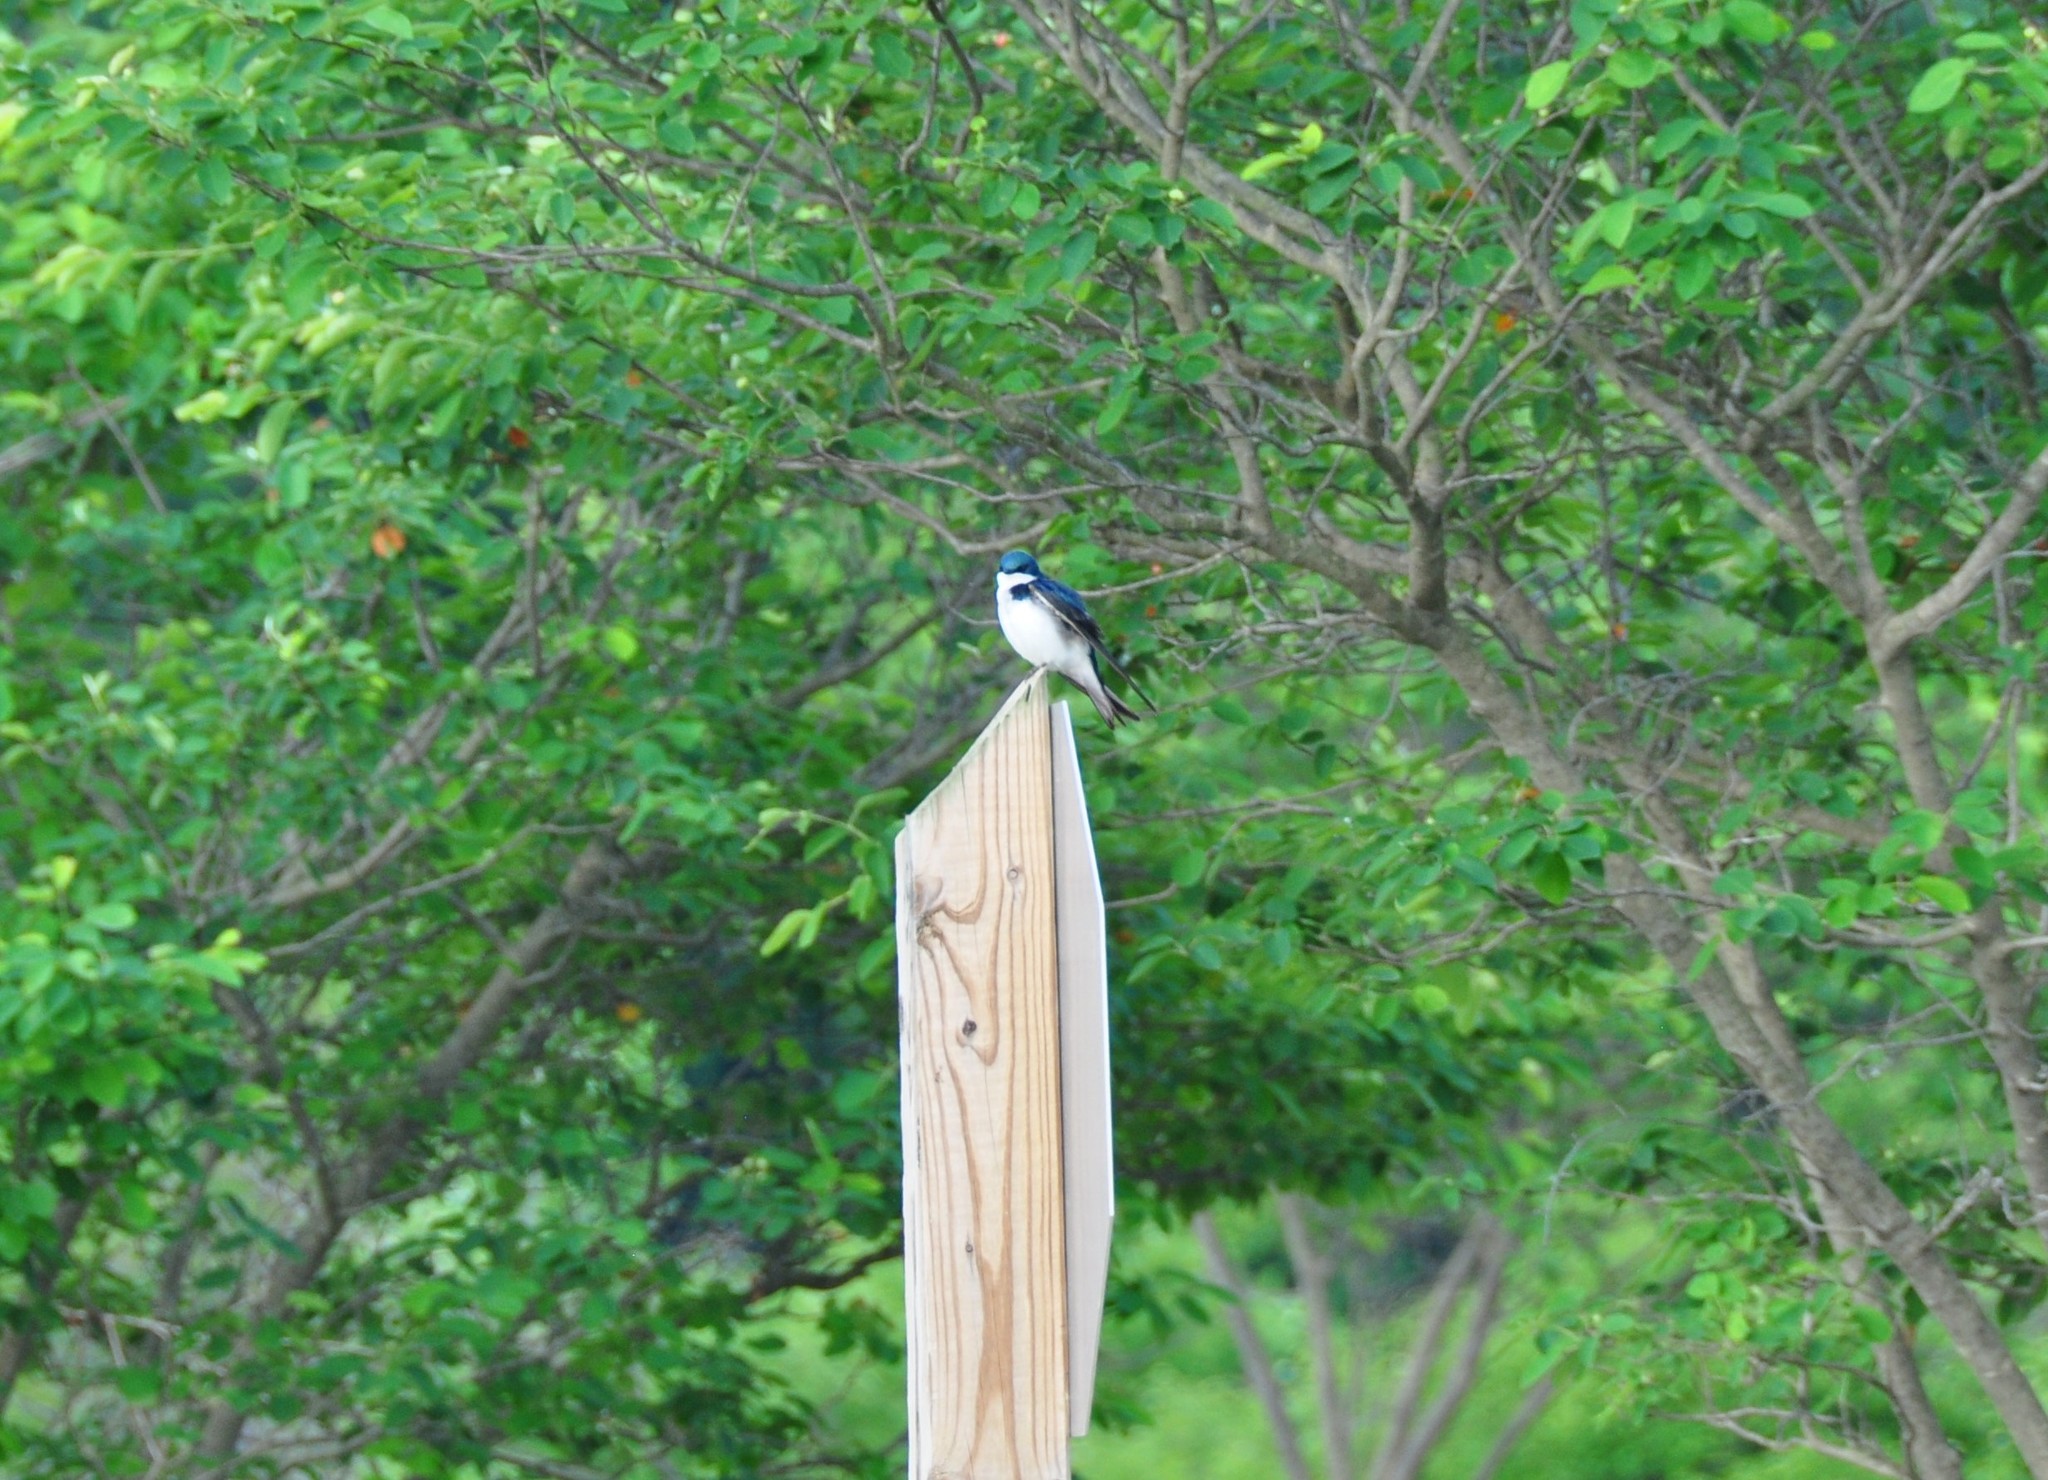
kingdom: Animalia
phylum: Chordata
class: Aves
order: Passeriformes
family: Hirundinidae
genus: Tachycineta
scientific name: Tachycineta bicolor
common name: Tree swallow
